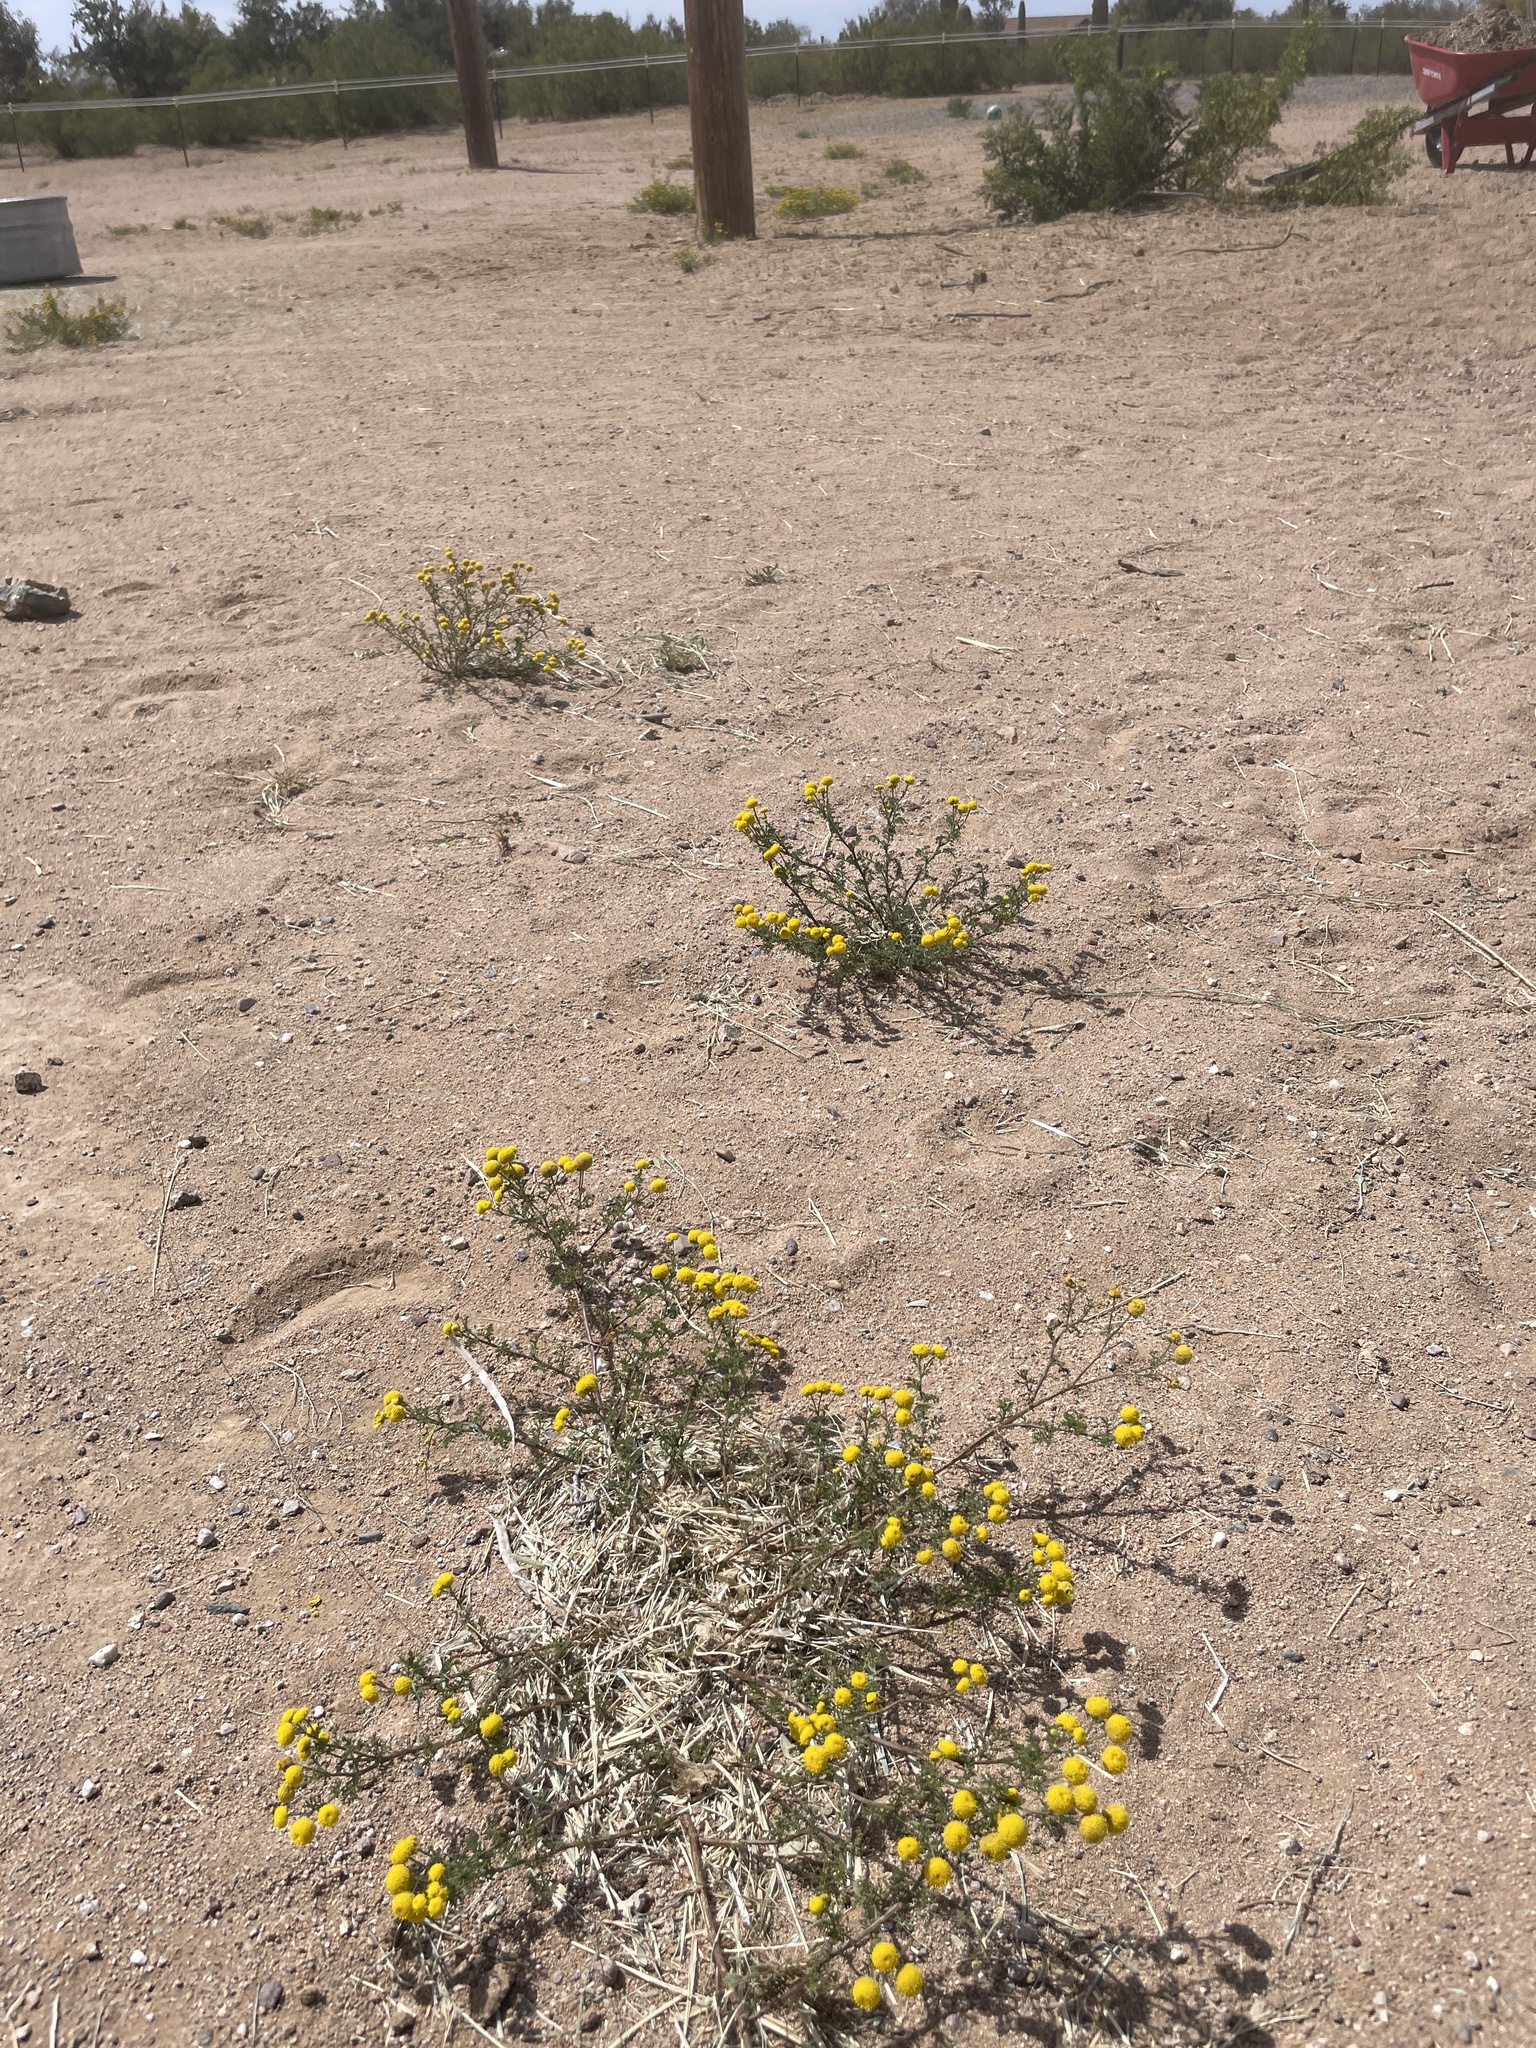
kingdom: Plantae
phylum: Tracheophyta
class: Magnoliopsida
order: Asterales
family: Asteraceae
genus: Oncosiphon
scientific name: Oncosiphon pilulifer
